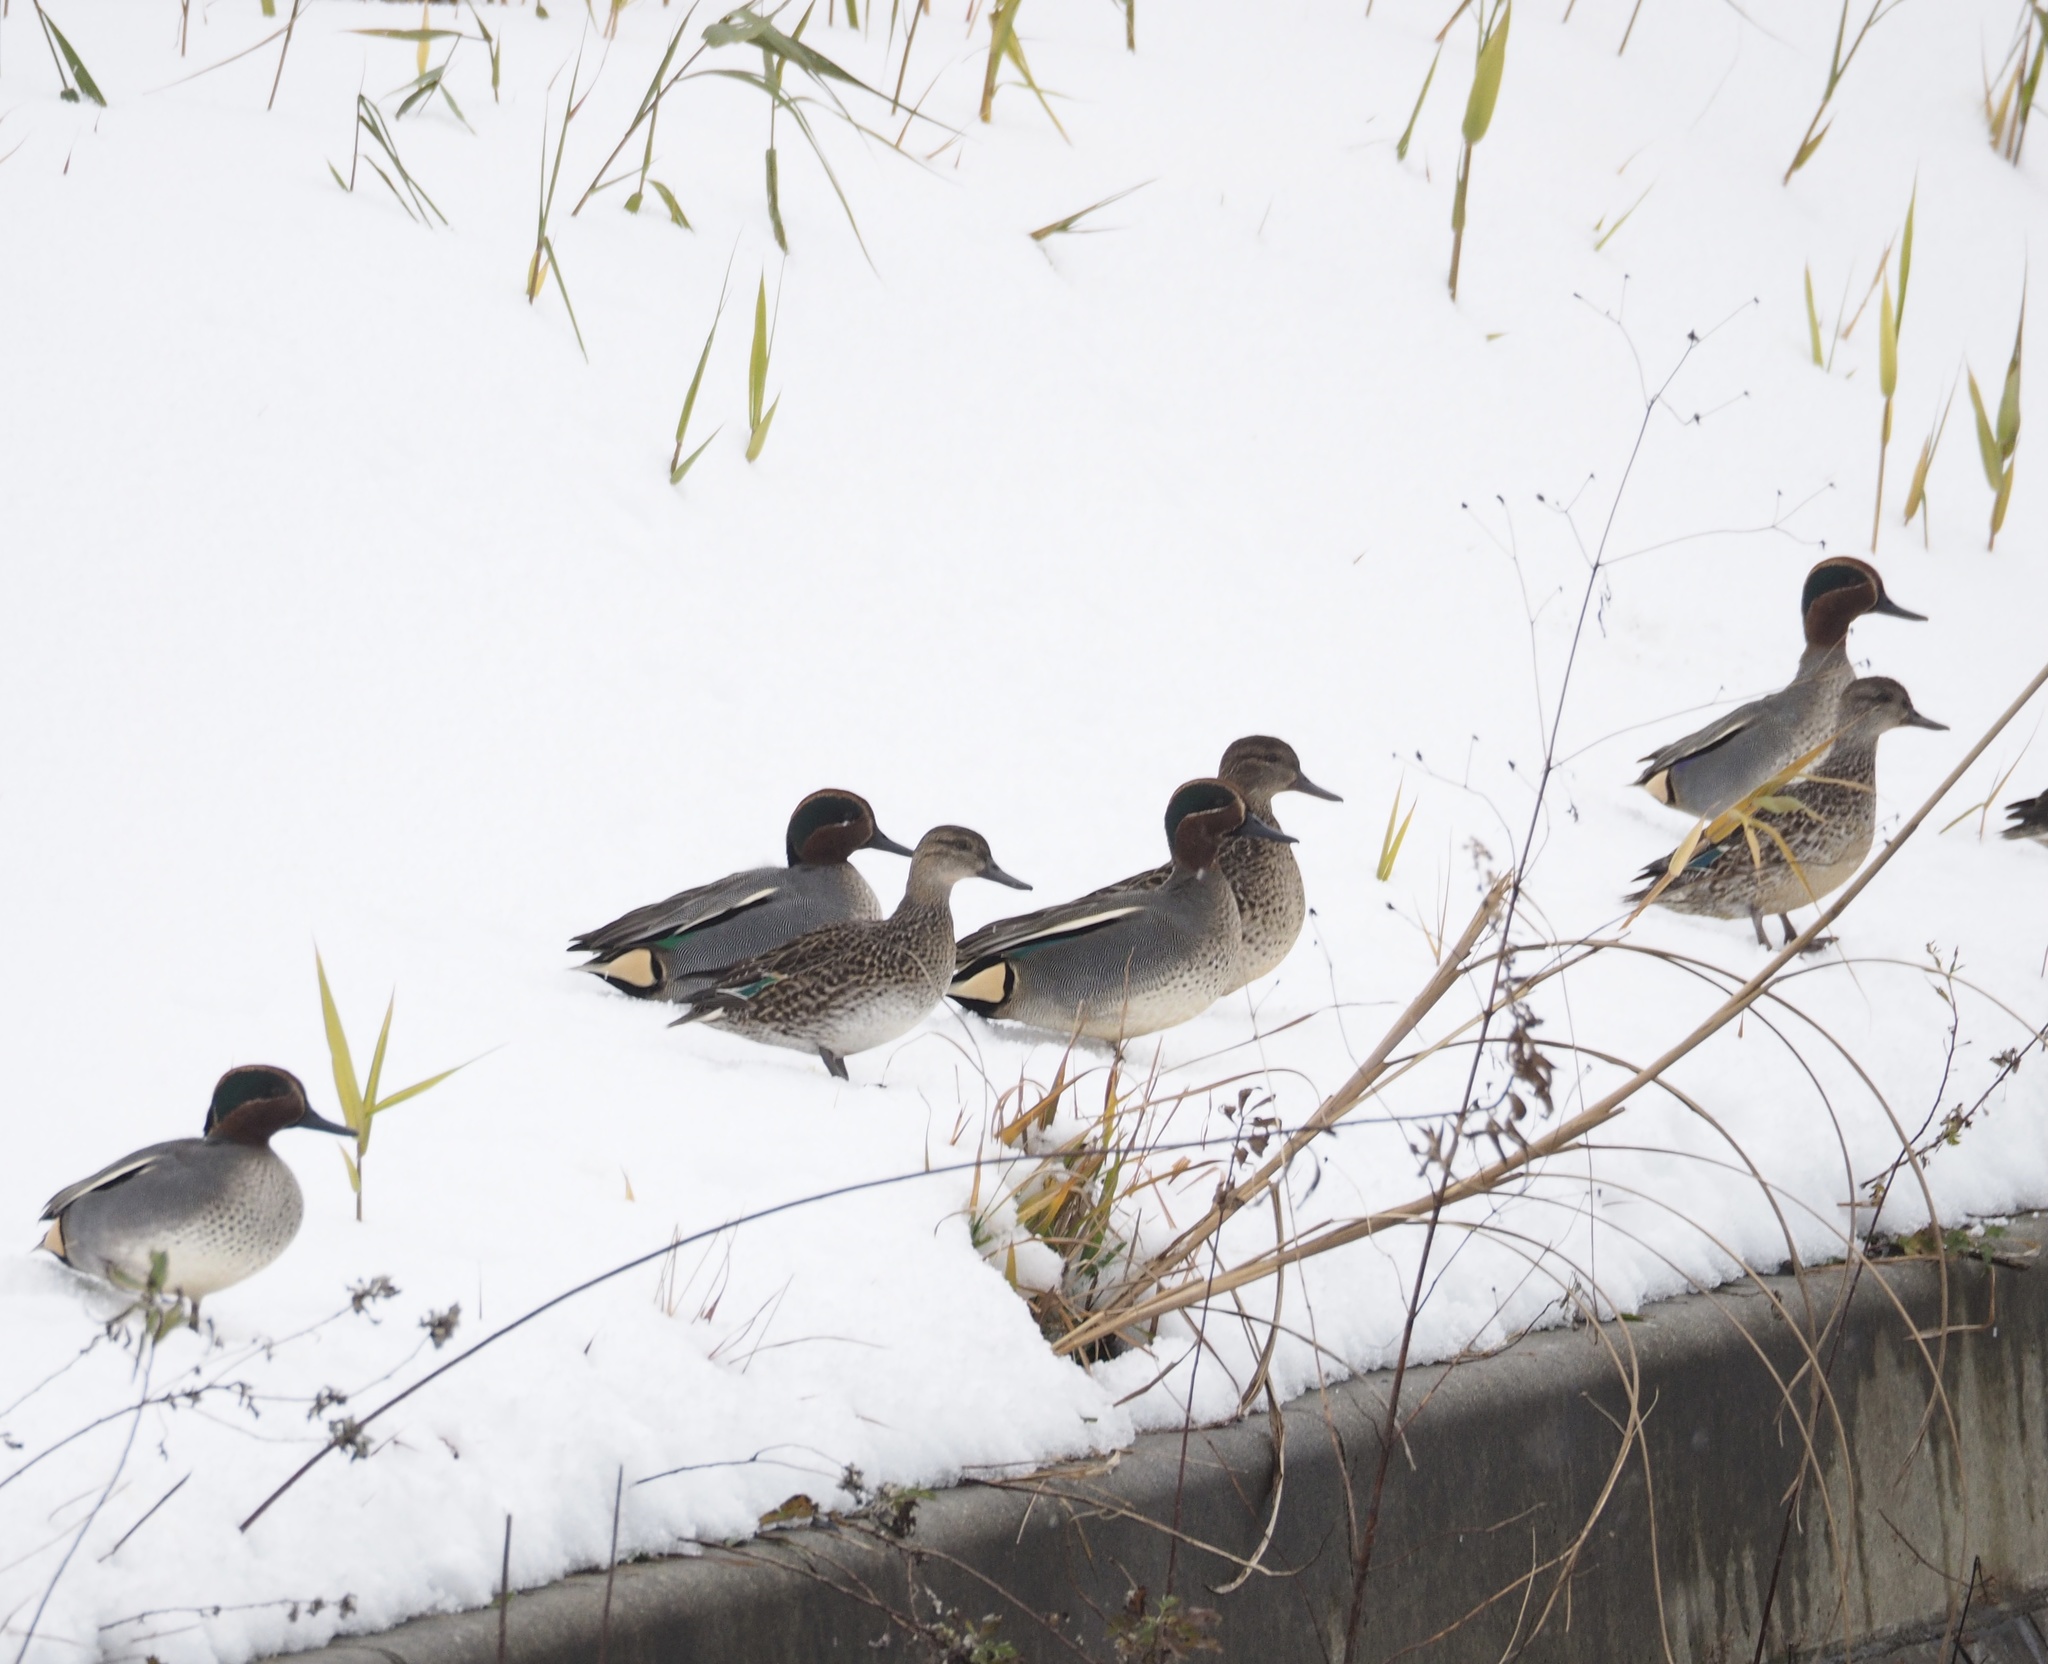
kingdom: Animalia
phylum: Chordata
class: Aves
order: Anseriformes
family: Anatidae
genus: Anas
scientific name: Anas crecca
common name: Eurasian teal
